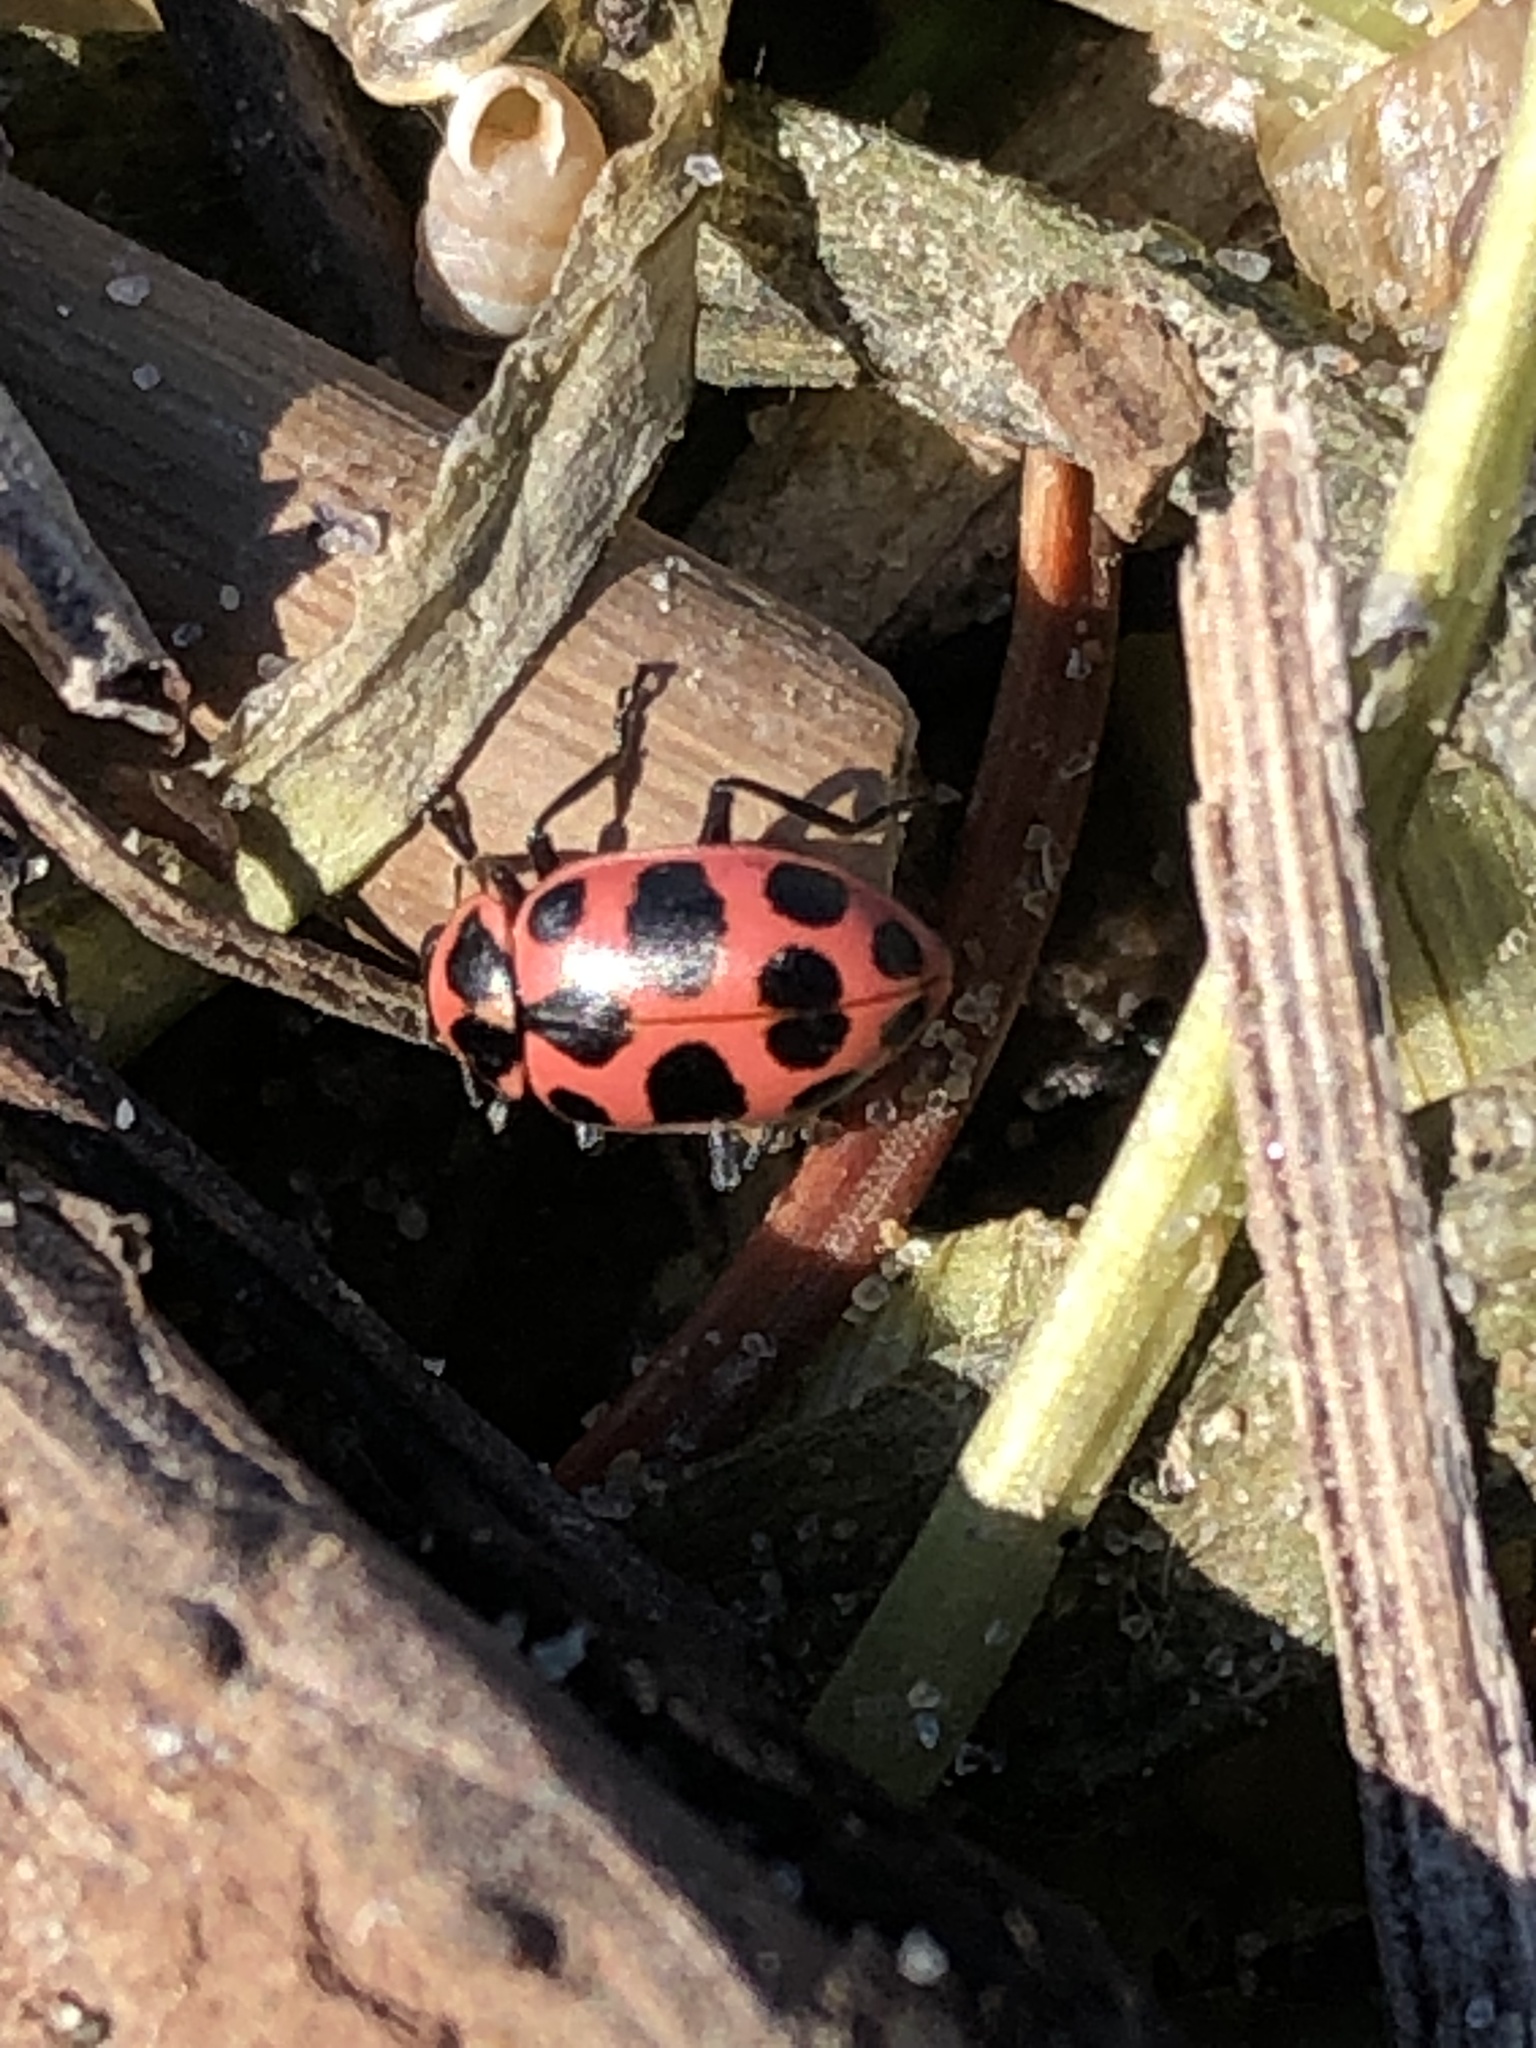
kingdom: Animalia
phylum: Arthropoda
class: Insecta
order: Coleoptera
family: Coccinellidae
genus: Coleomegilla
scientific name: Coleomegilla maculata
